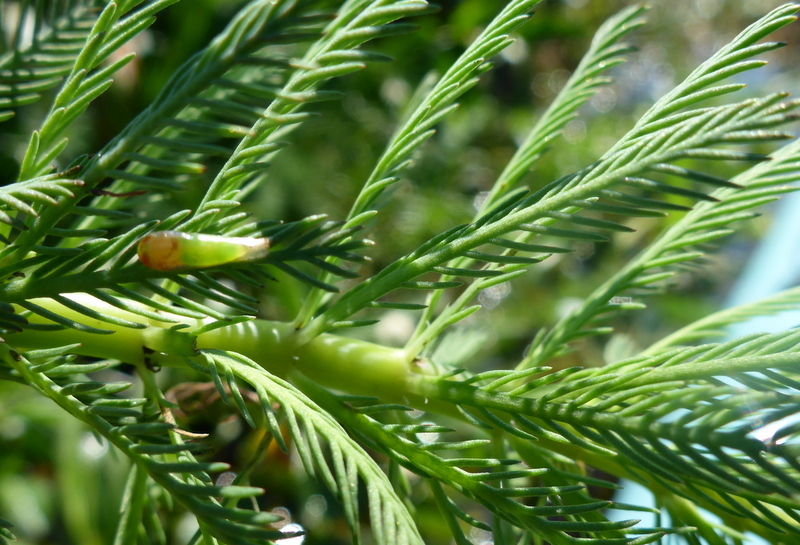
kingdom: Plantae
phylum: Tracheophyta
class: Magnoliopsida
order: Saxifragales
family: Haloragaceae
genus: Myriophyllum
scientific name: Myriophyllum aquaticum
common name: Parrot's feather
